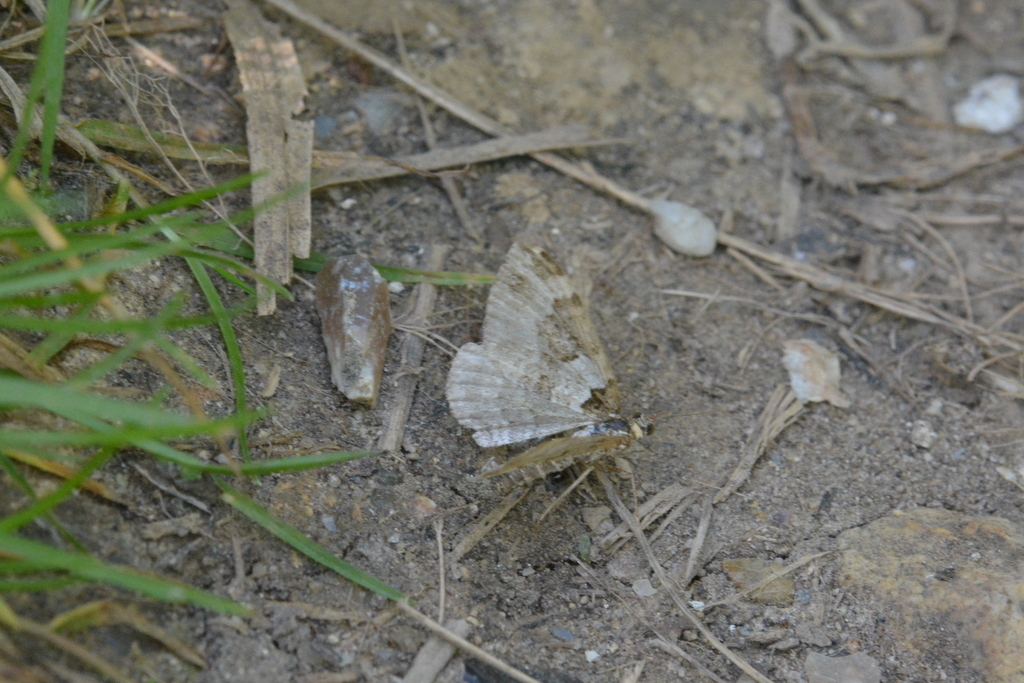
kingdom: Animalia
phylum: Arthropoda
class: Insecta
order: Lepidoptera
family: Geometridae
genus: Xanthorhoe
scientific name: Xanthorhoe fluctuata
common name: Garden carpet
